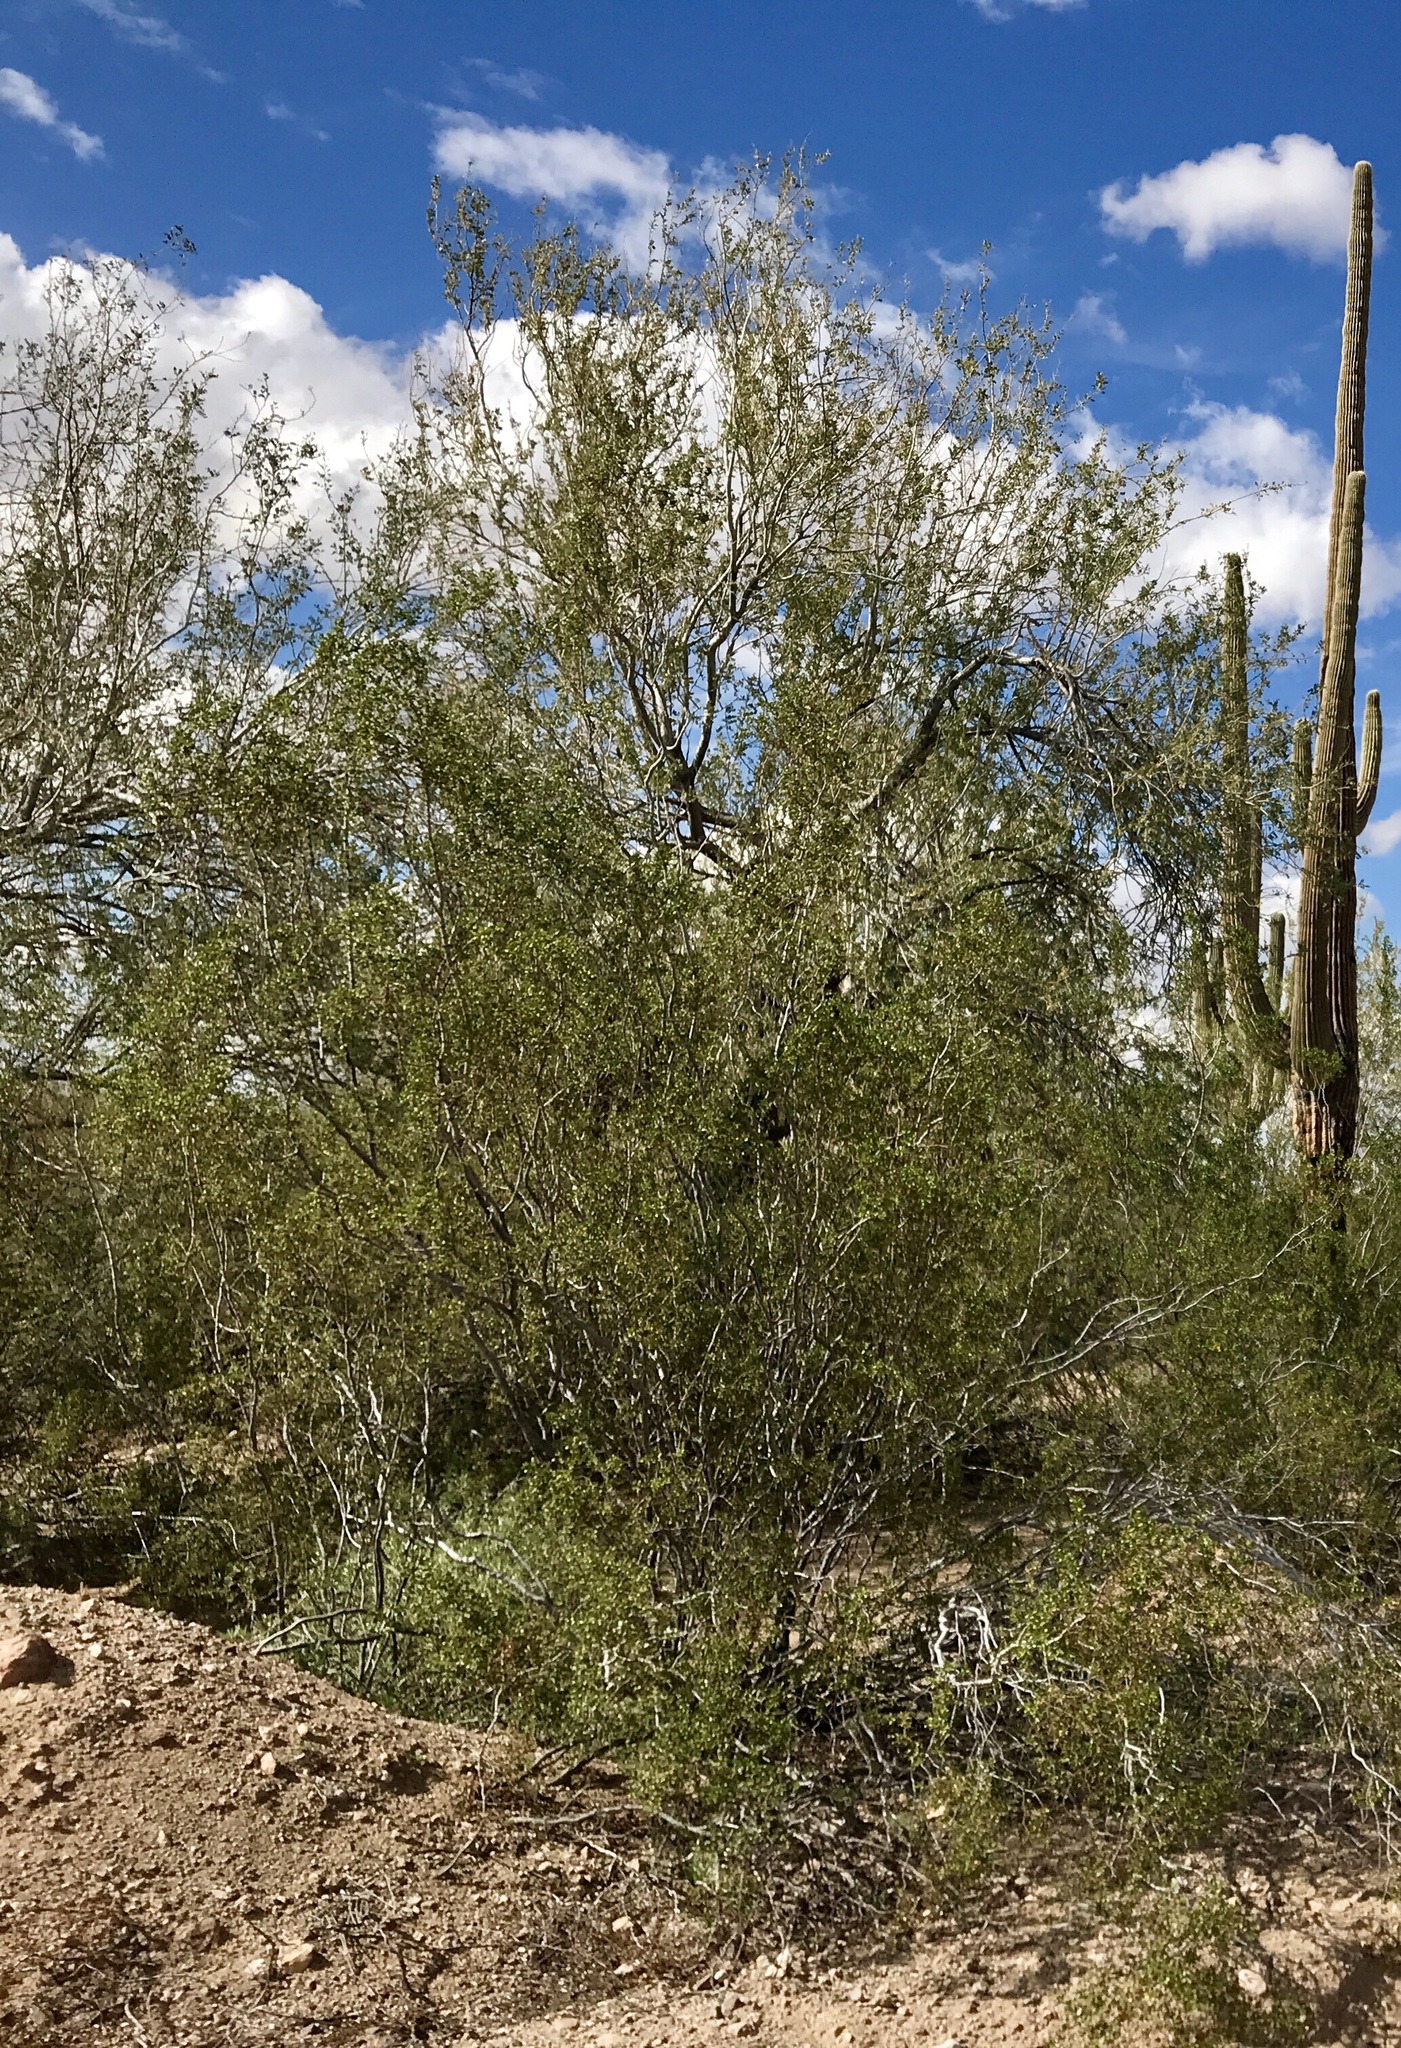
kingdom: Plantae
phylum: Tracheophyta
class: Magnoliopsida
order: Zygophyllales
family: Zygophyllaceae
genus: Larrea
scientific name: Larrea tridentata
